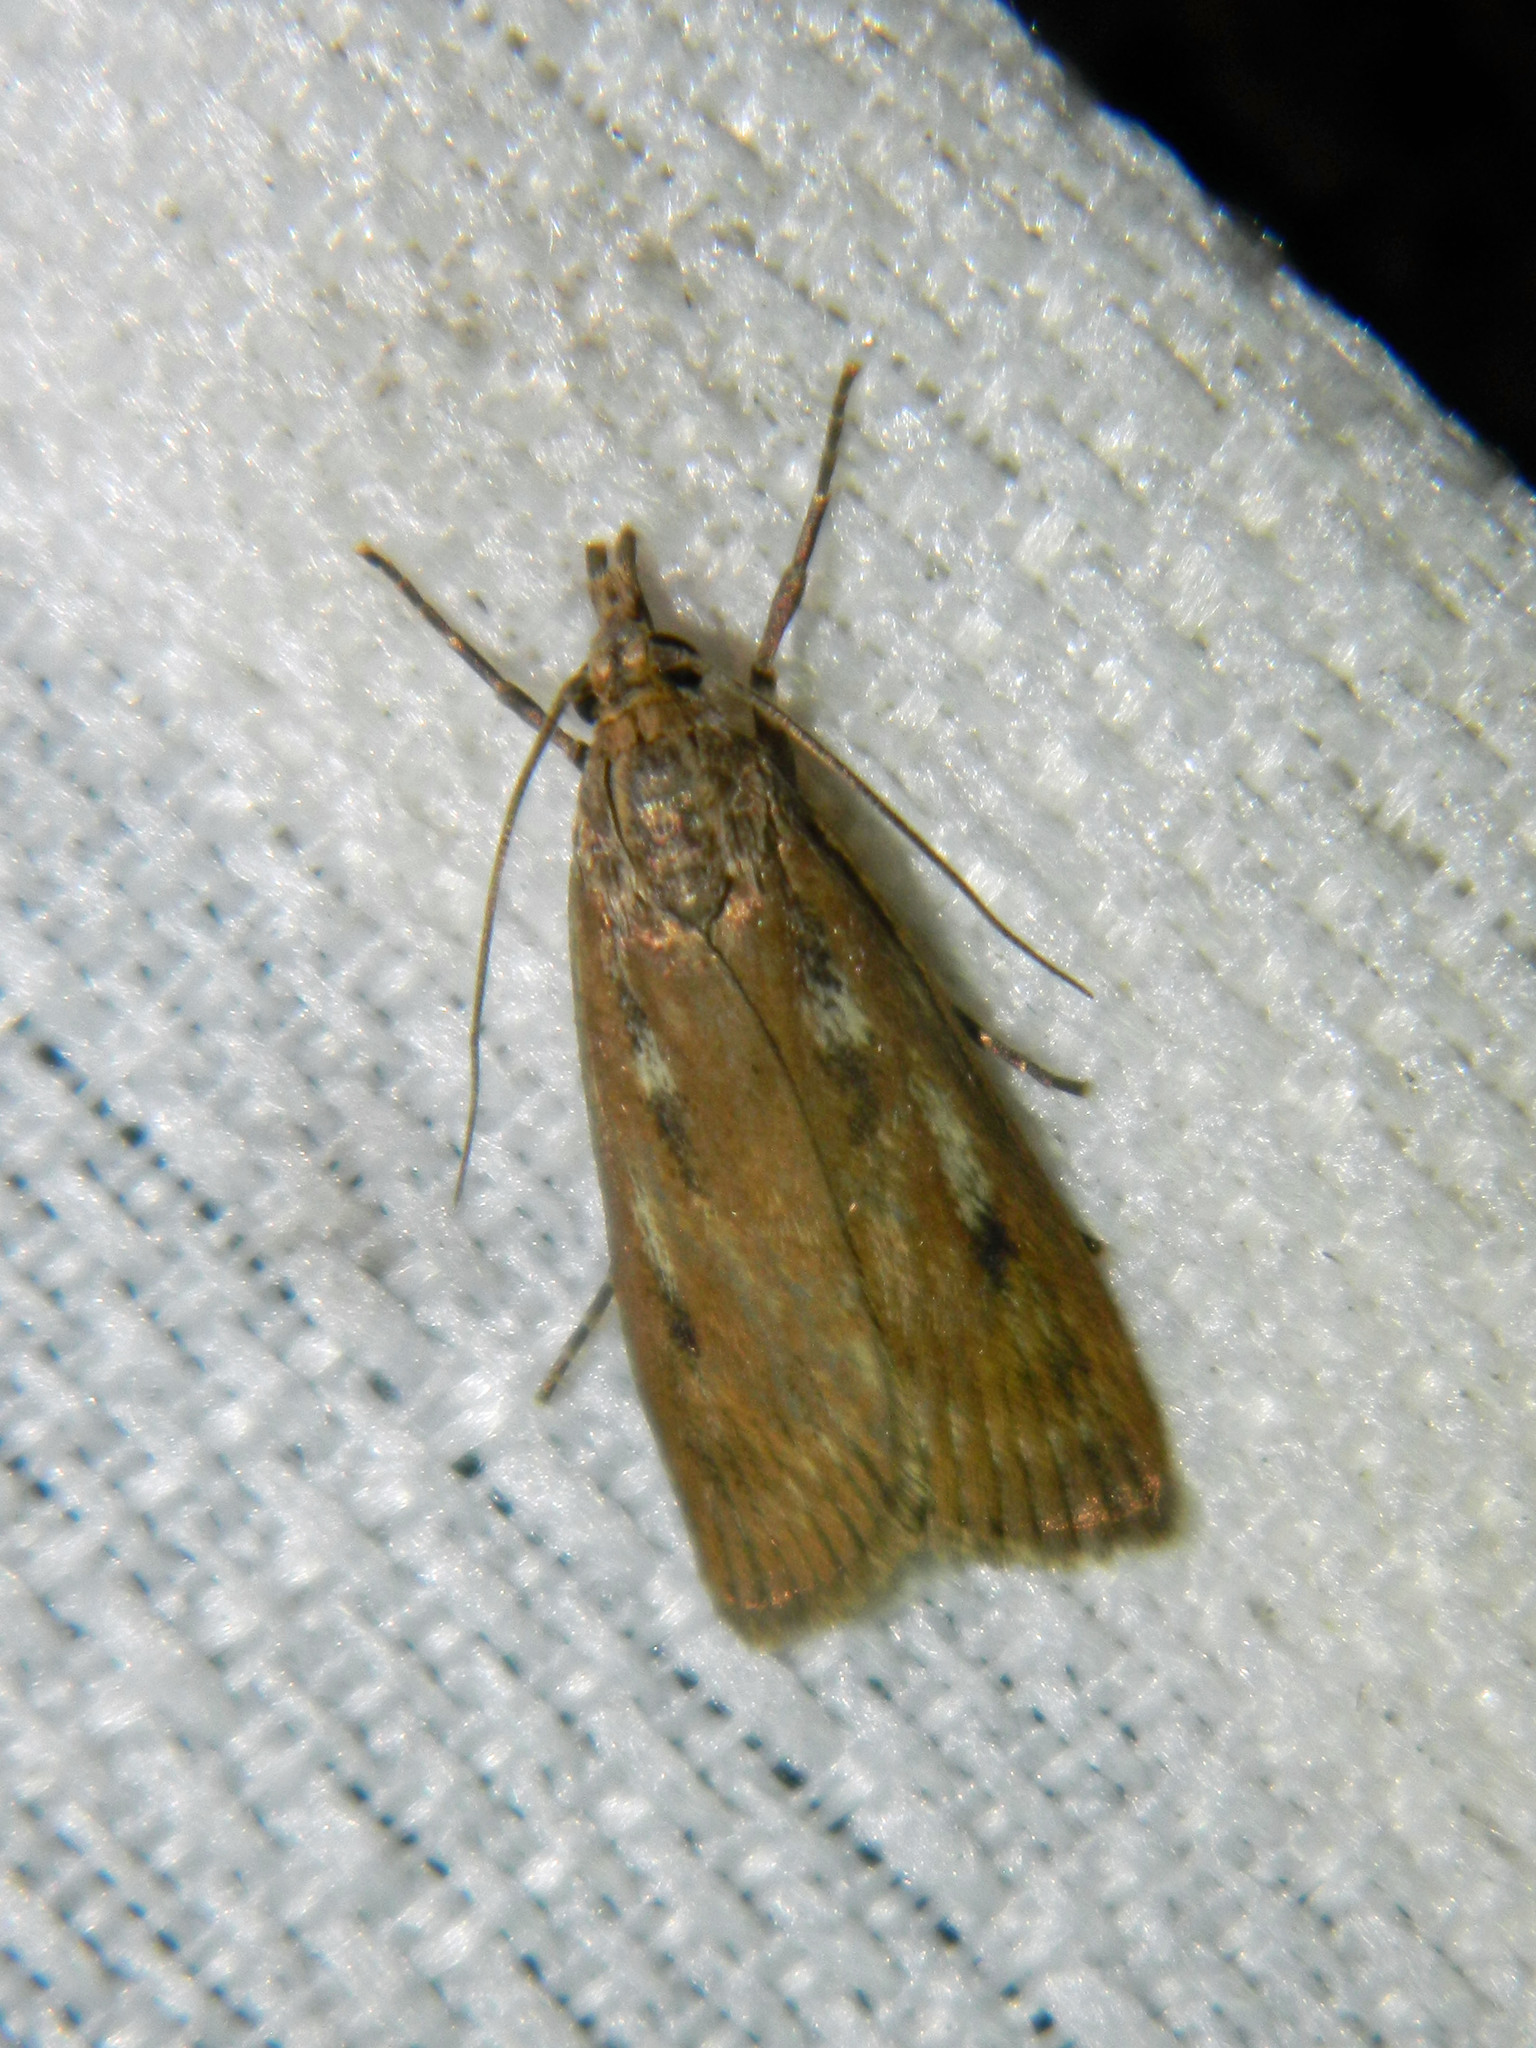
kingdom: Animalia
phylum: Arthropoda
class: Insecta
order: Lepidoptera
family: Crambidae
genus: Occidentalia
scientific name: Occidentalia comptulatalis
